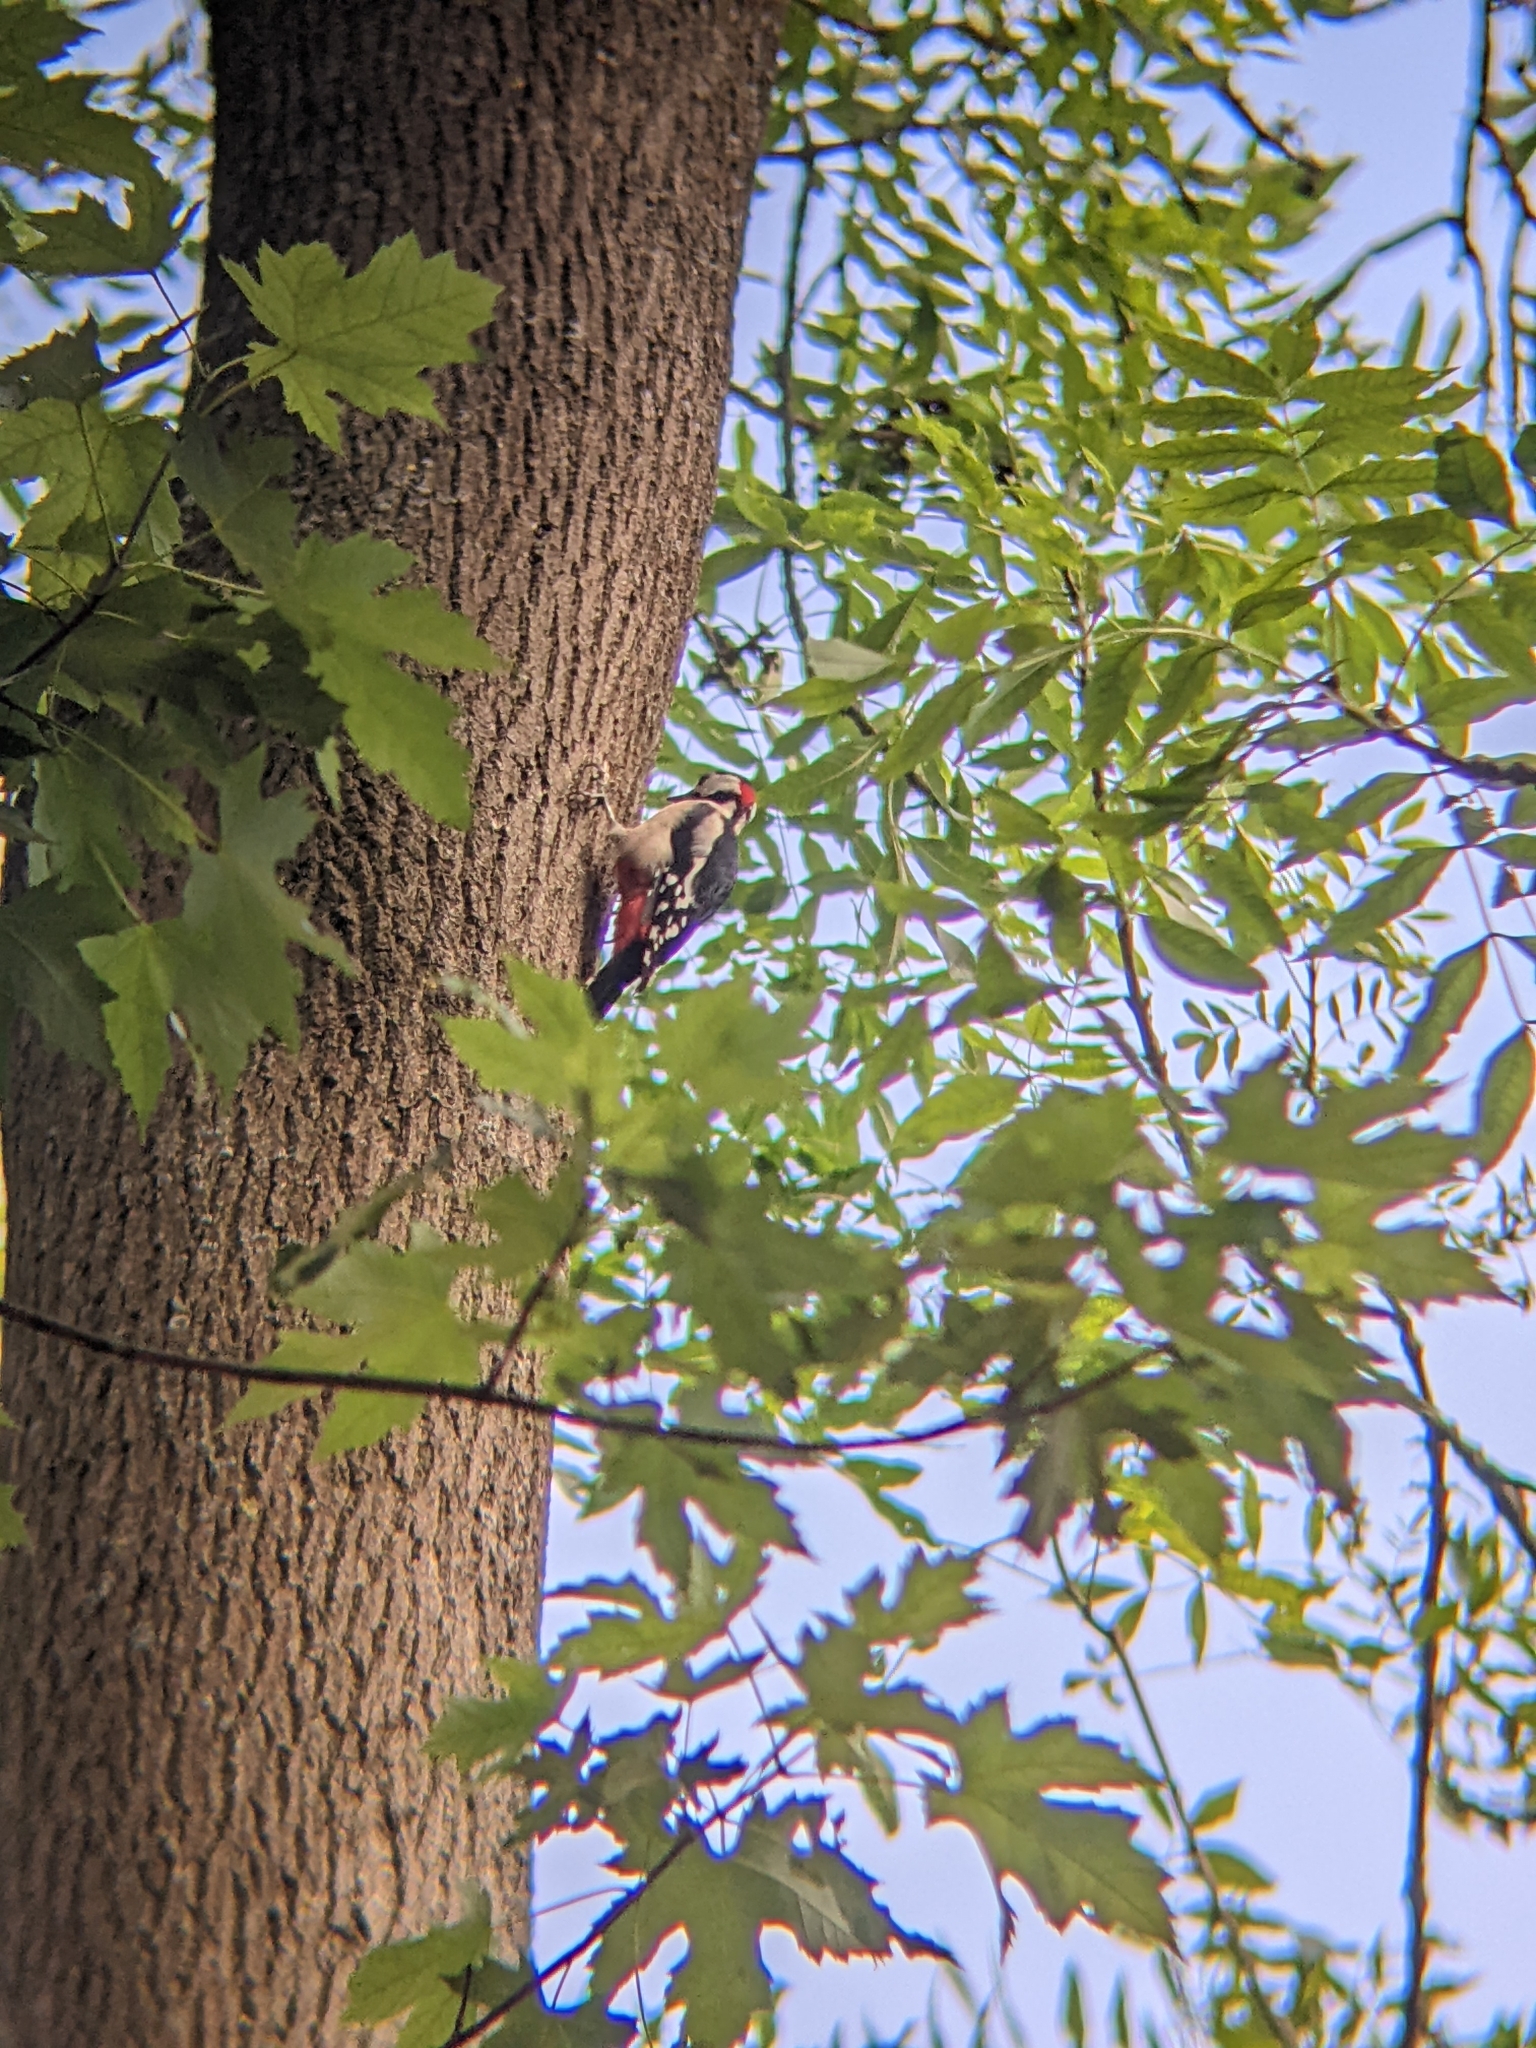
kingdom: Animalia
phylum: Chordata
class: Aves
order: Piciformes
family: Picidae
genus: Dendrocopos
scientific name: Dendrocopos major
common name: Great spotted woodpecker
